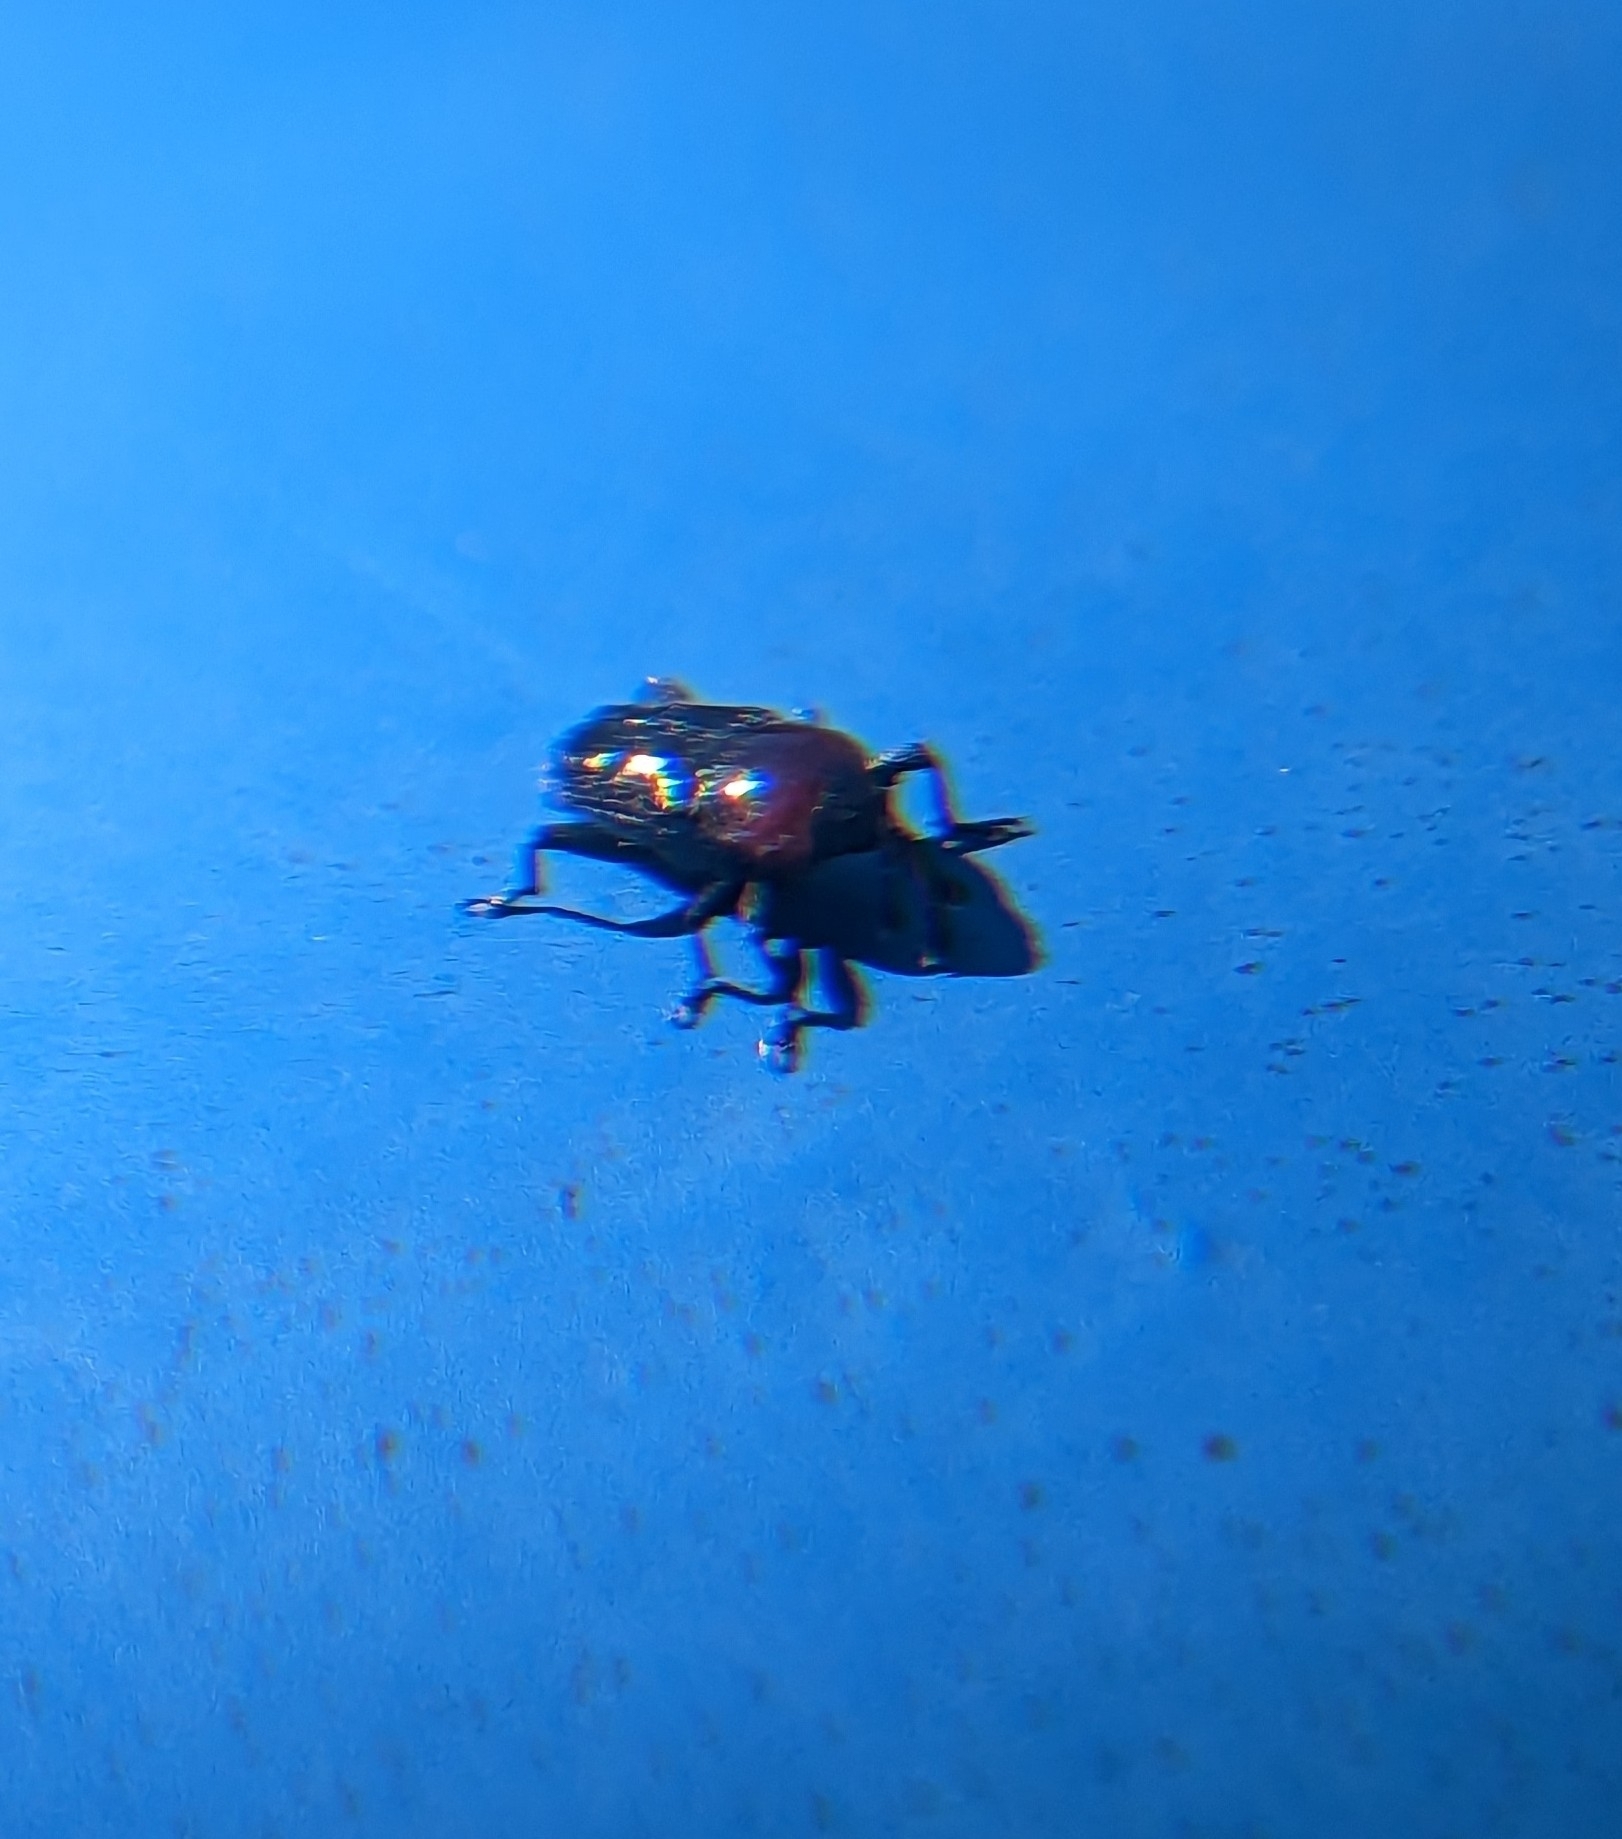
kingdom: Animalia
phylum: Arthropoda
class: Insecta
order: Coleoptera
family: Curculionidae
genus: Madarellus
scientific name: Madarellus undulatus
